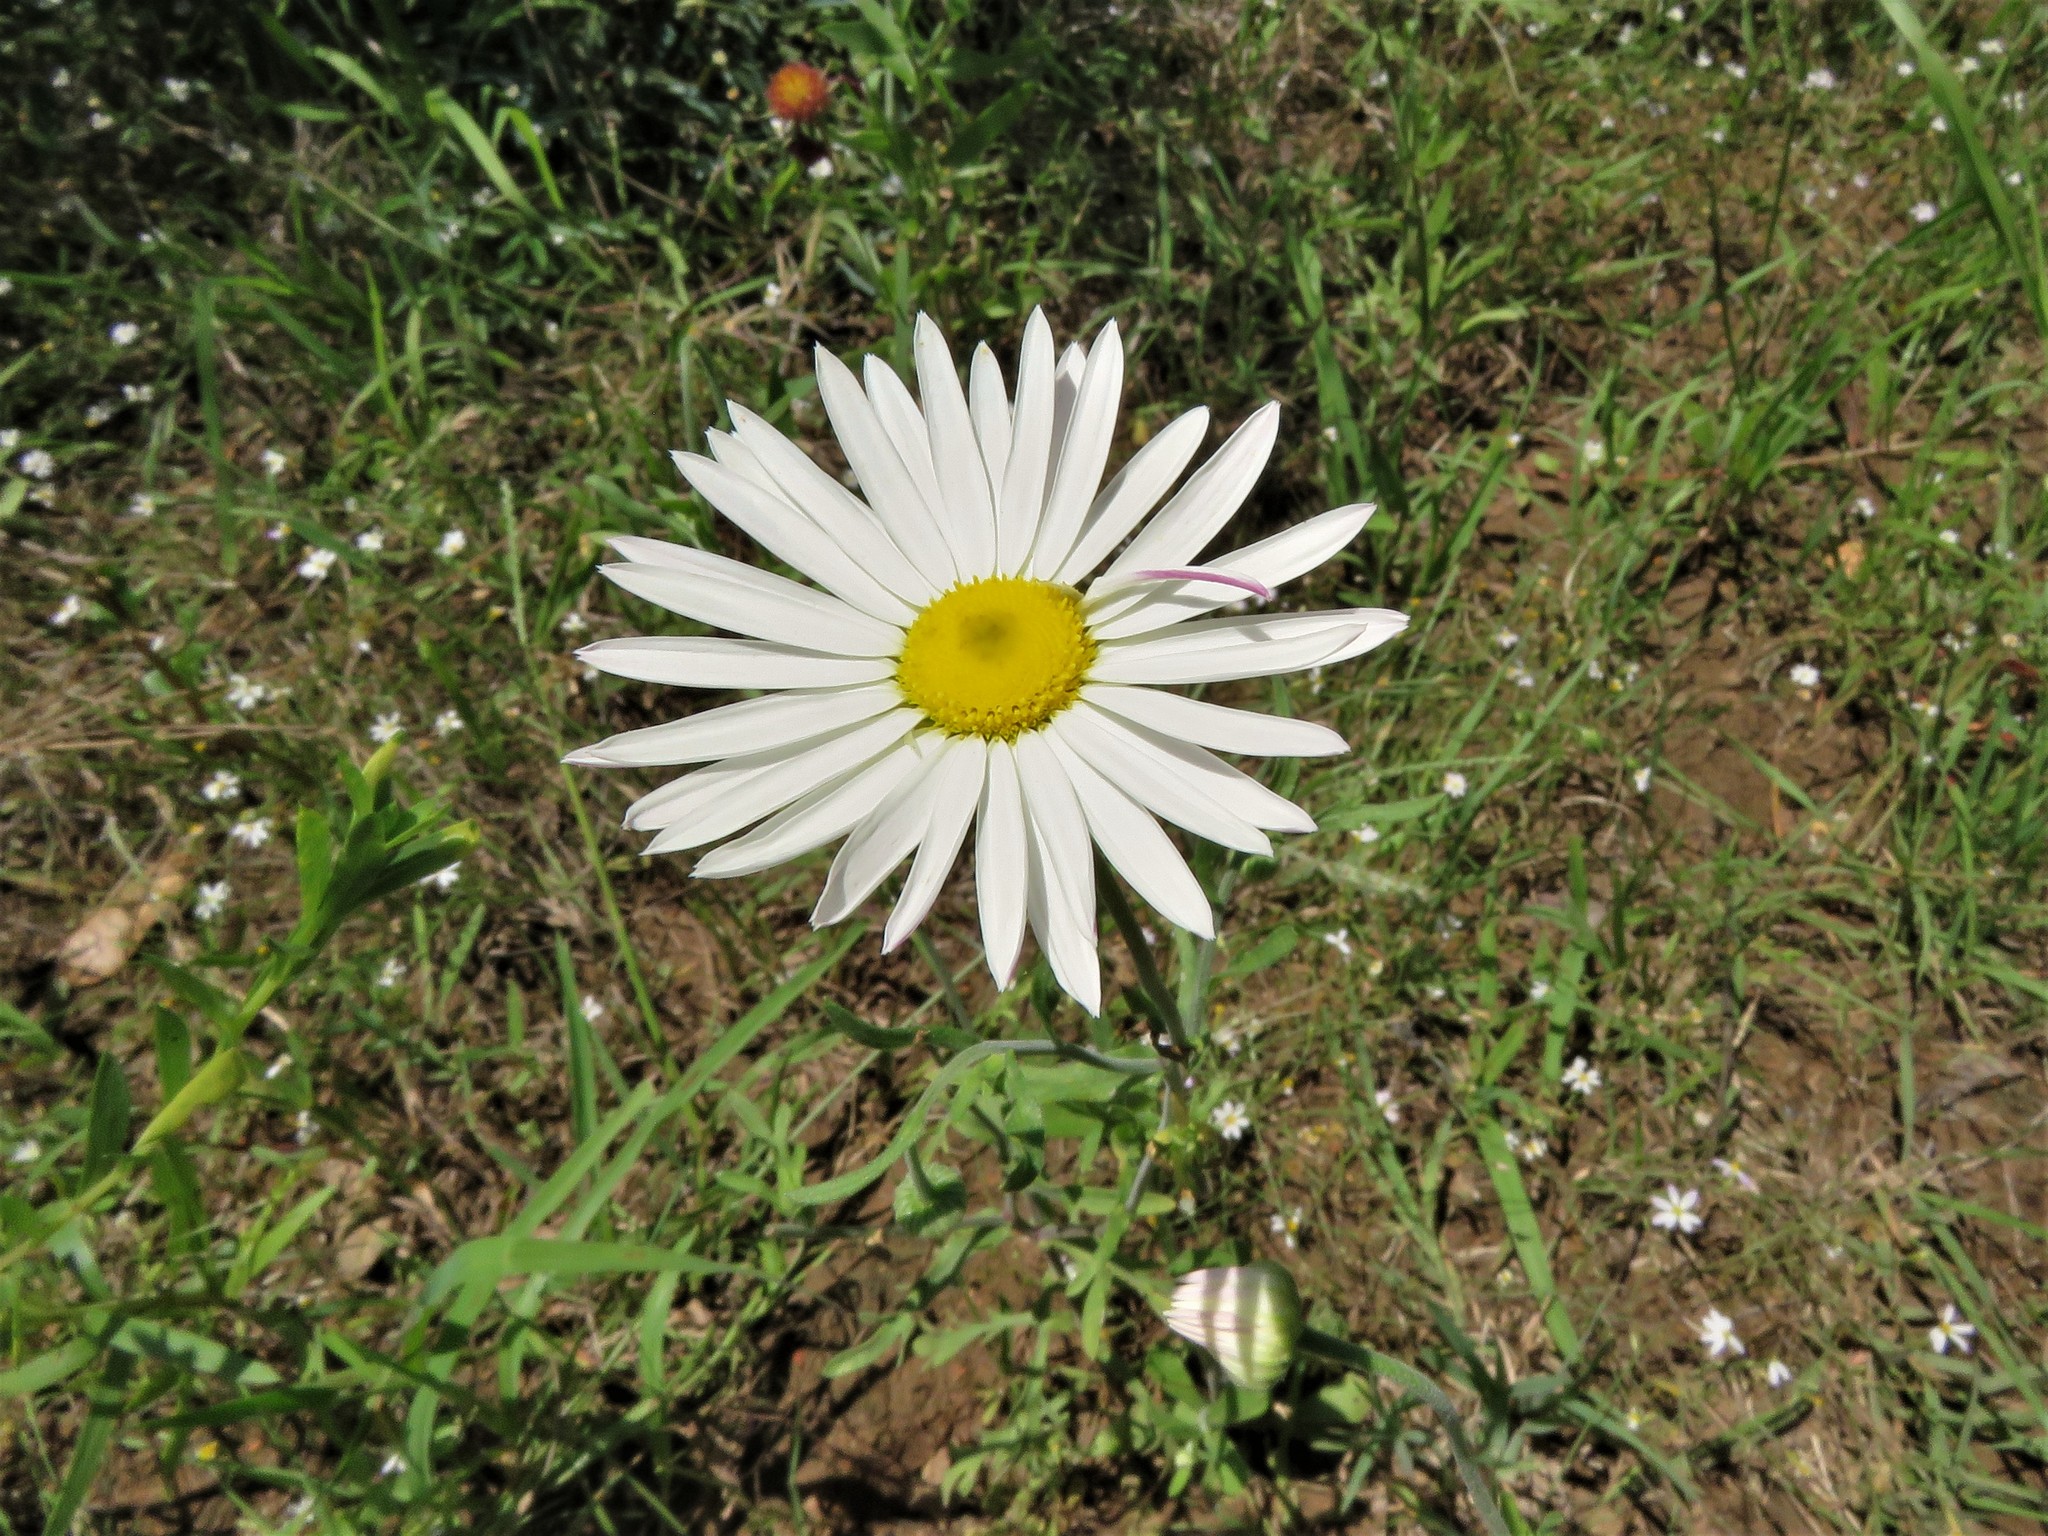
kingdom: Plantae
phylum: Tracheophyta
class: Magnoliopsida
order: Asterales
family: Asteraceae
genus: Aphanostephus
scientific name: Aphanostephus ramosissimus
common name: Plains lazy daisy
